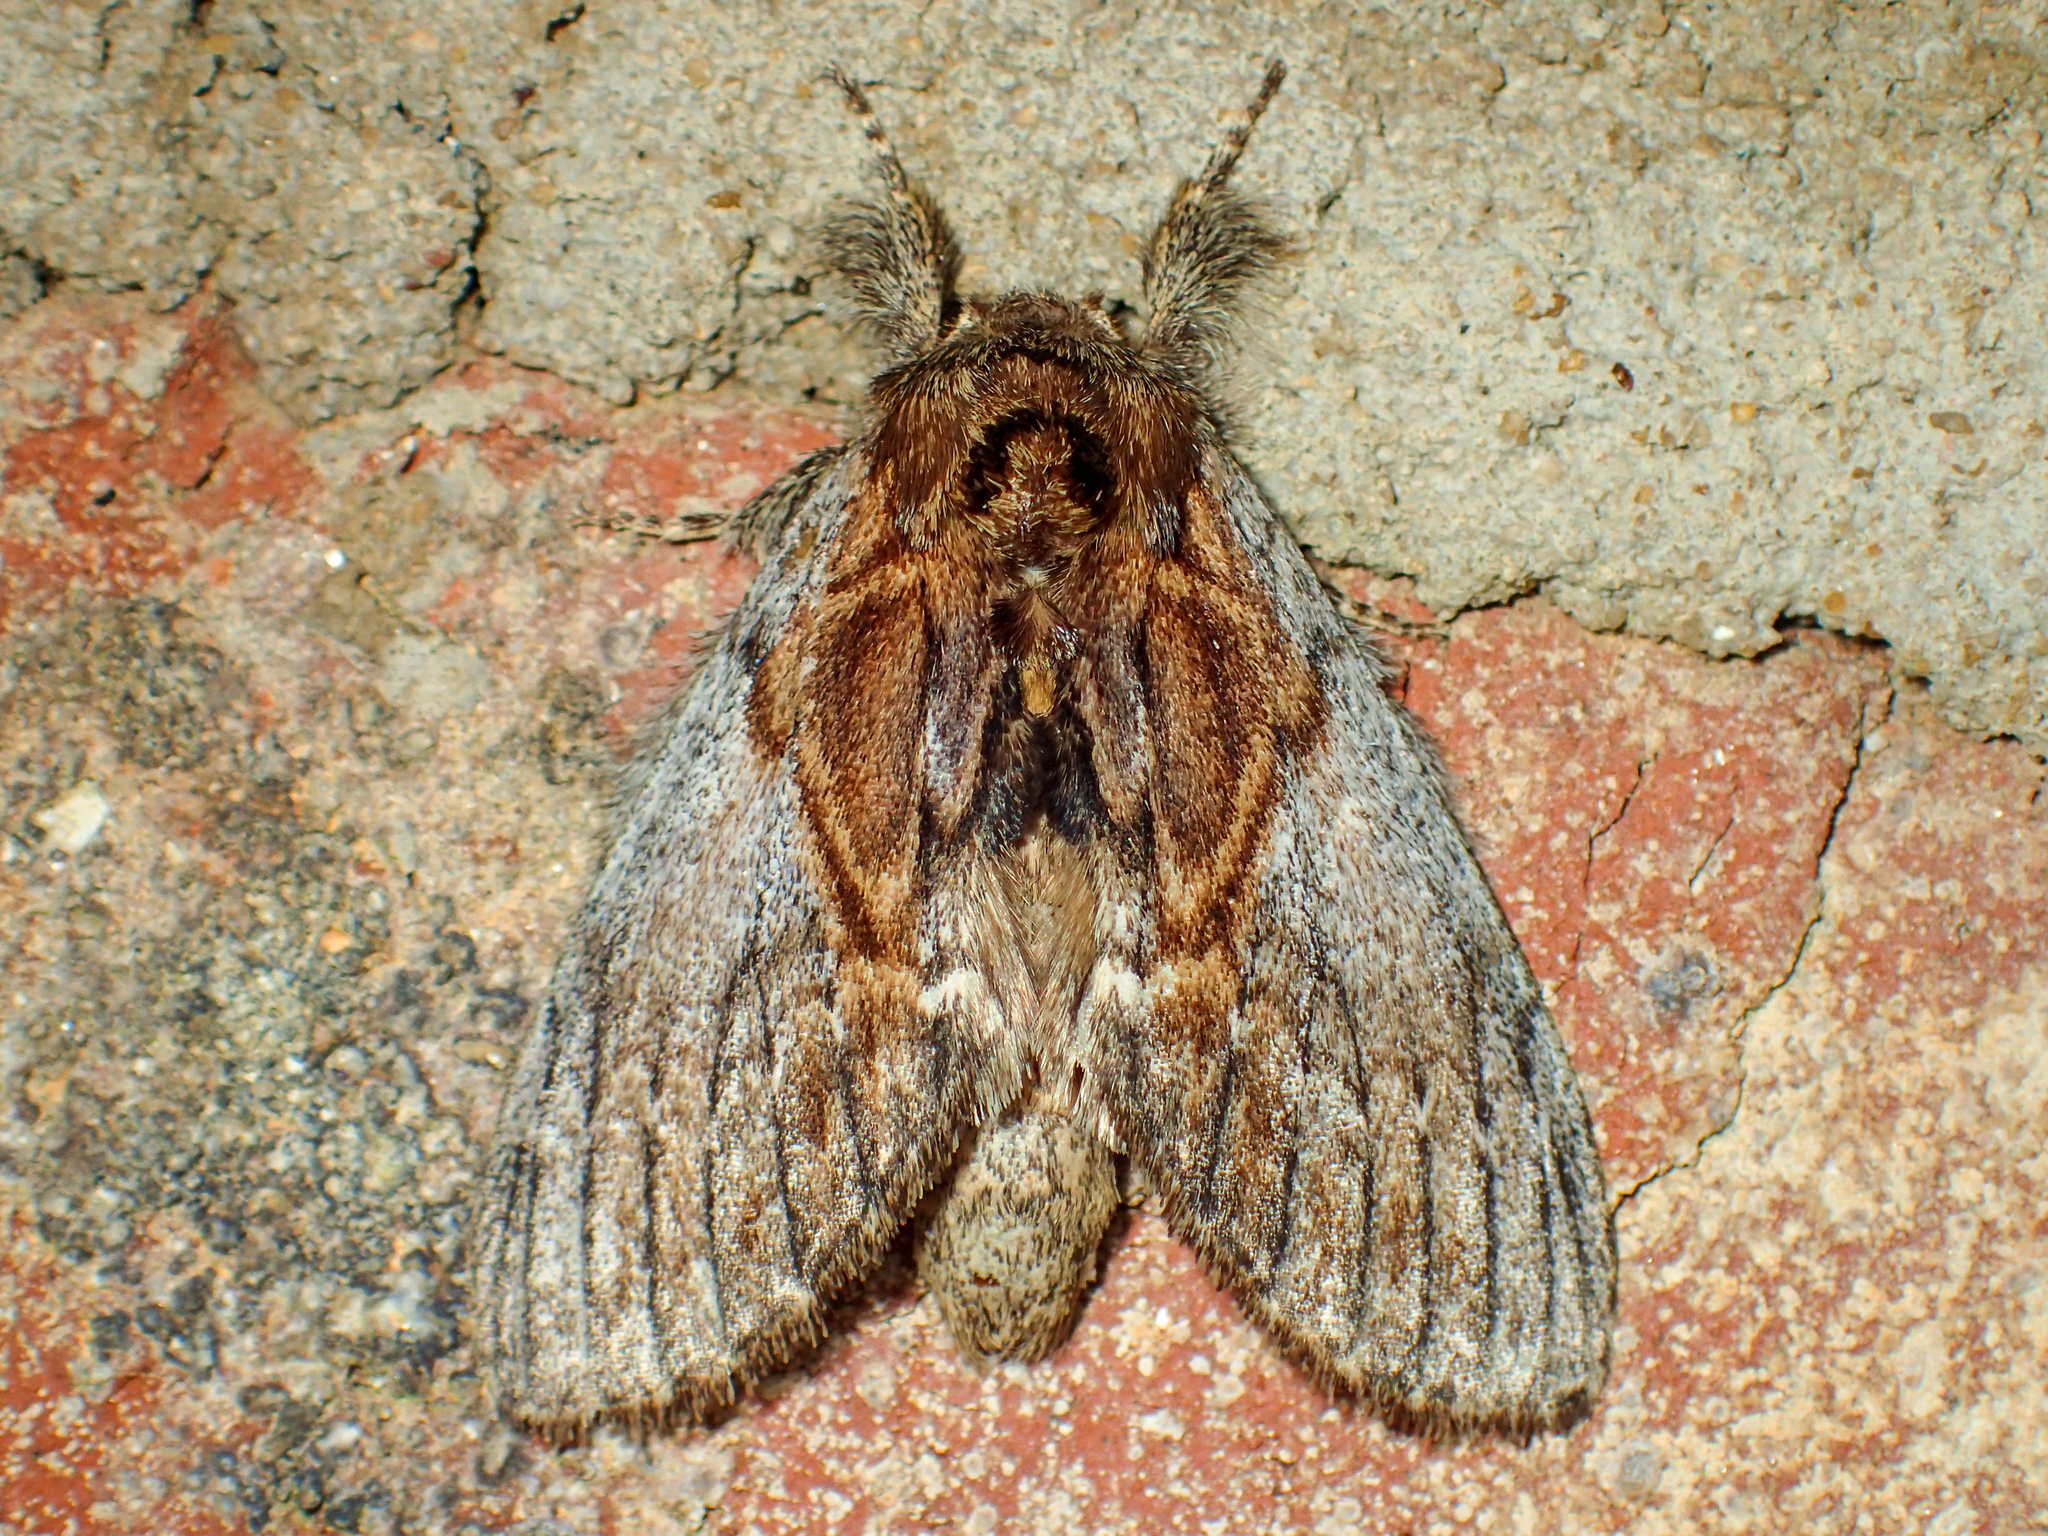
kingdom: Animalia
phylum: Arthropoda
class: Insecta
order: Lepidoptera
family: Notodontidae
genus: Peridea
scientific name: Peridea basitriens
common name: Oval-based prominent
